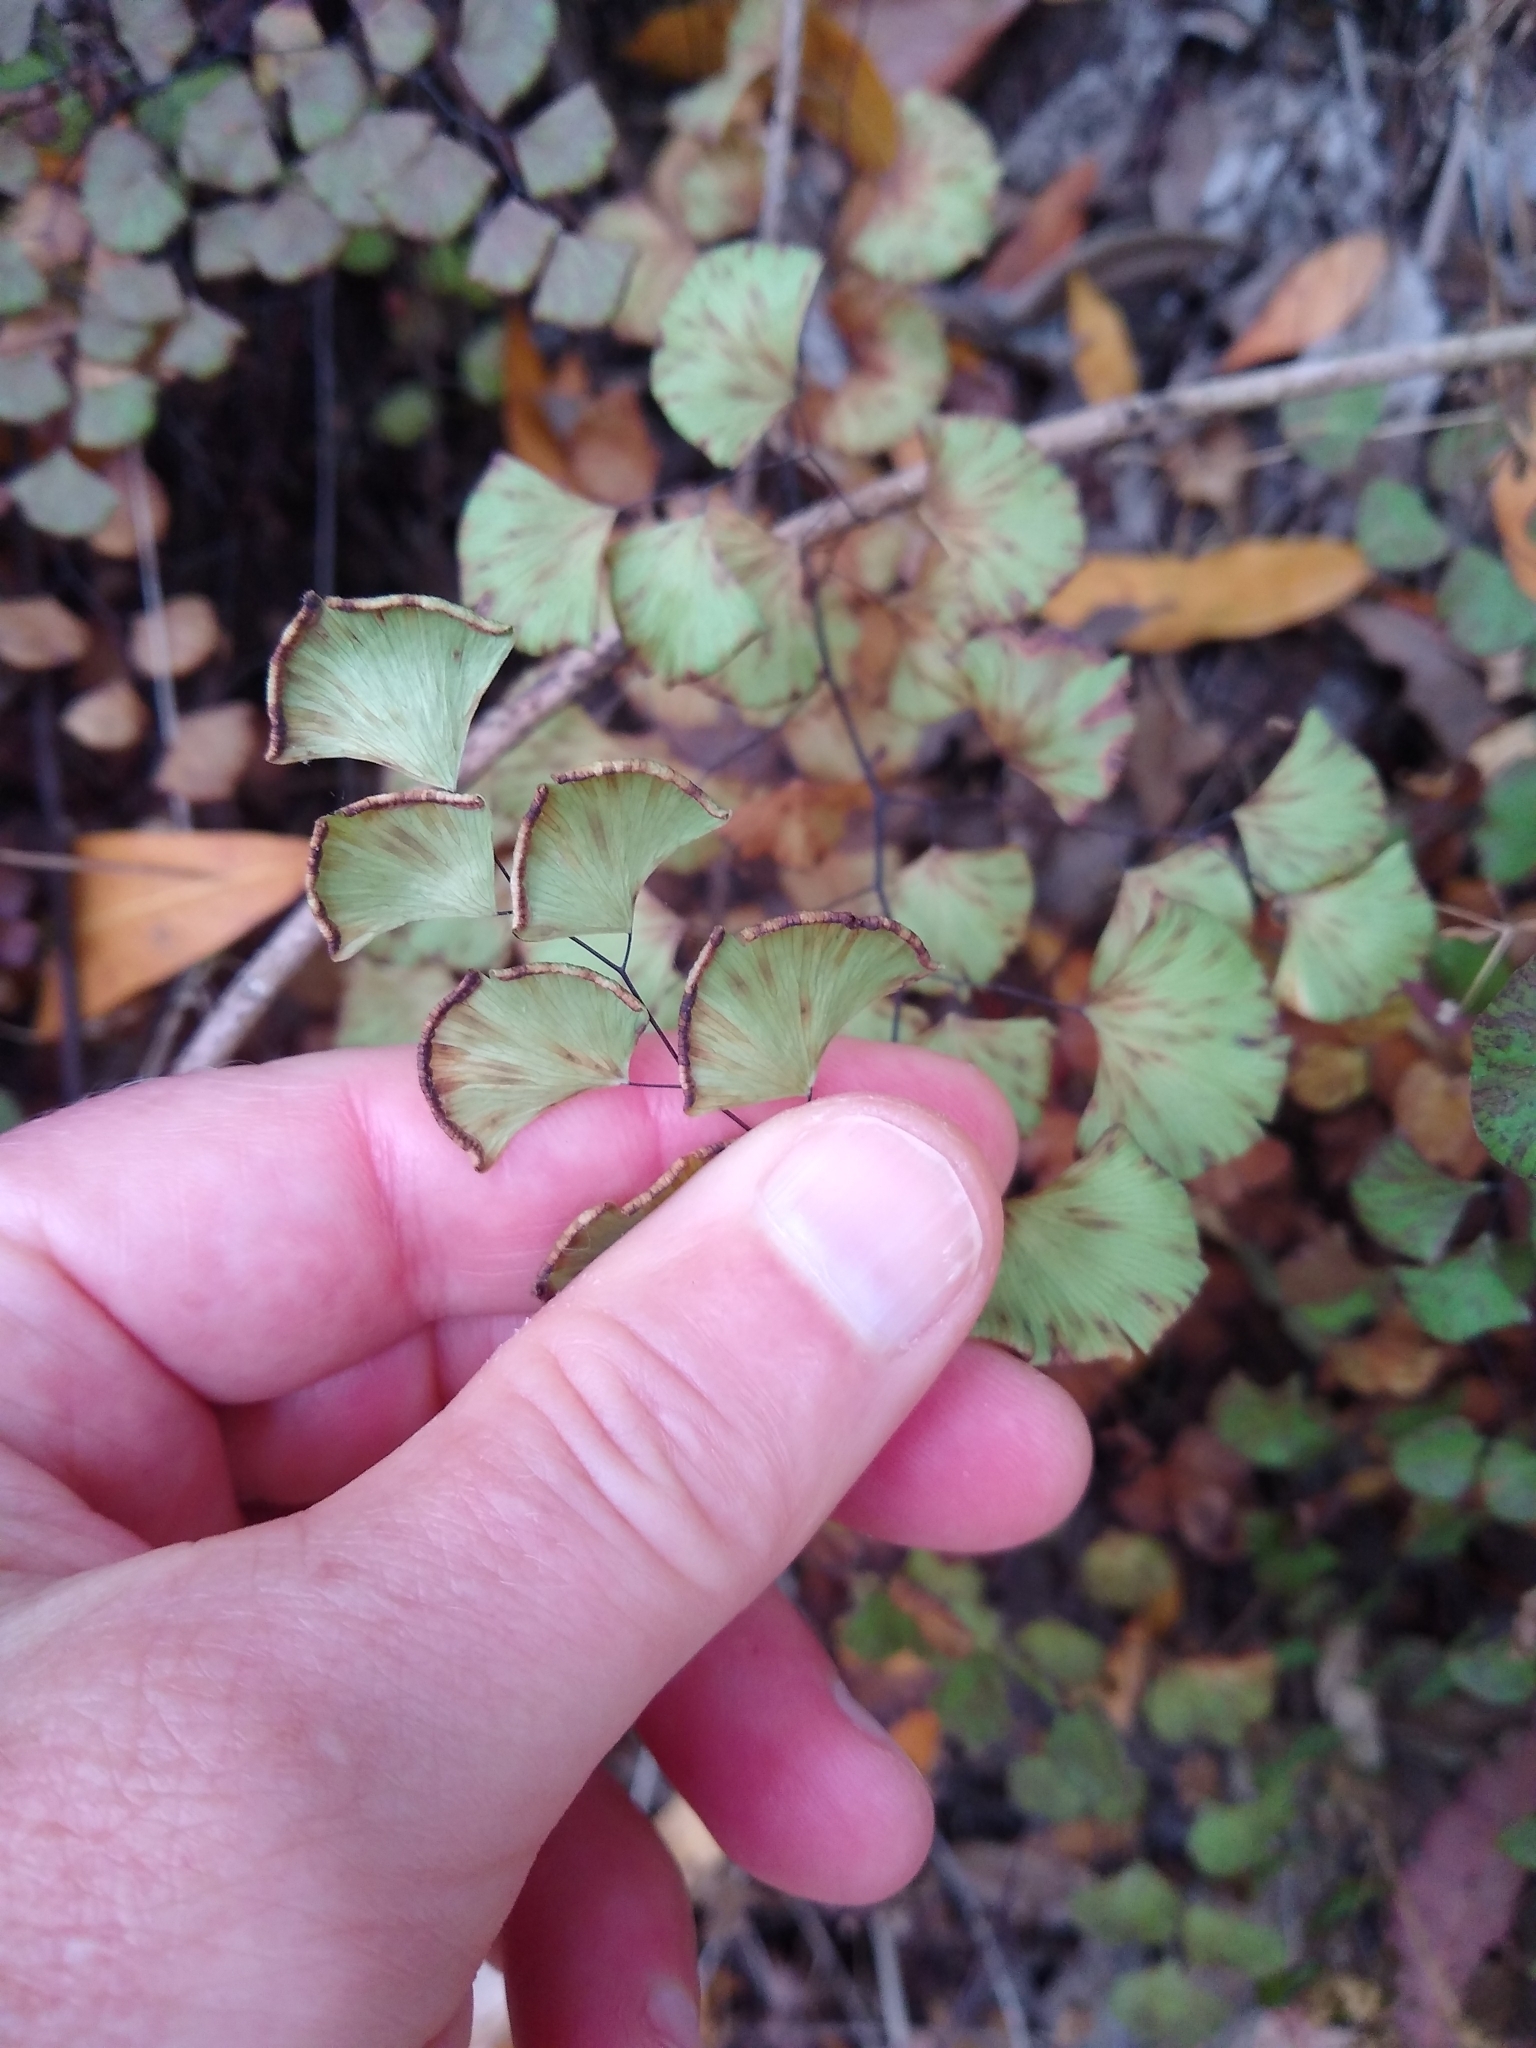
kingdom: Plantae
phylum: Tracheophyta
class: Polypodiopsida
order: Polypodiales
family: Pteridaceae
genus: Adiantum
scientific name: Adiantum jordanii
